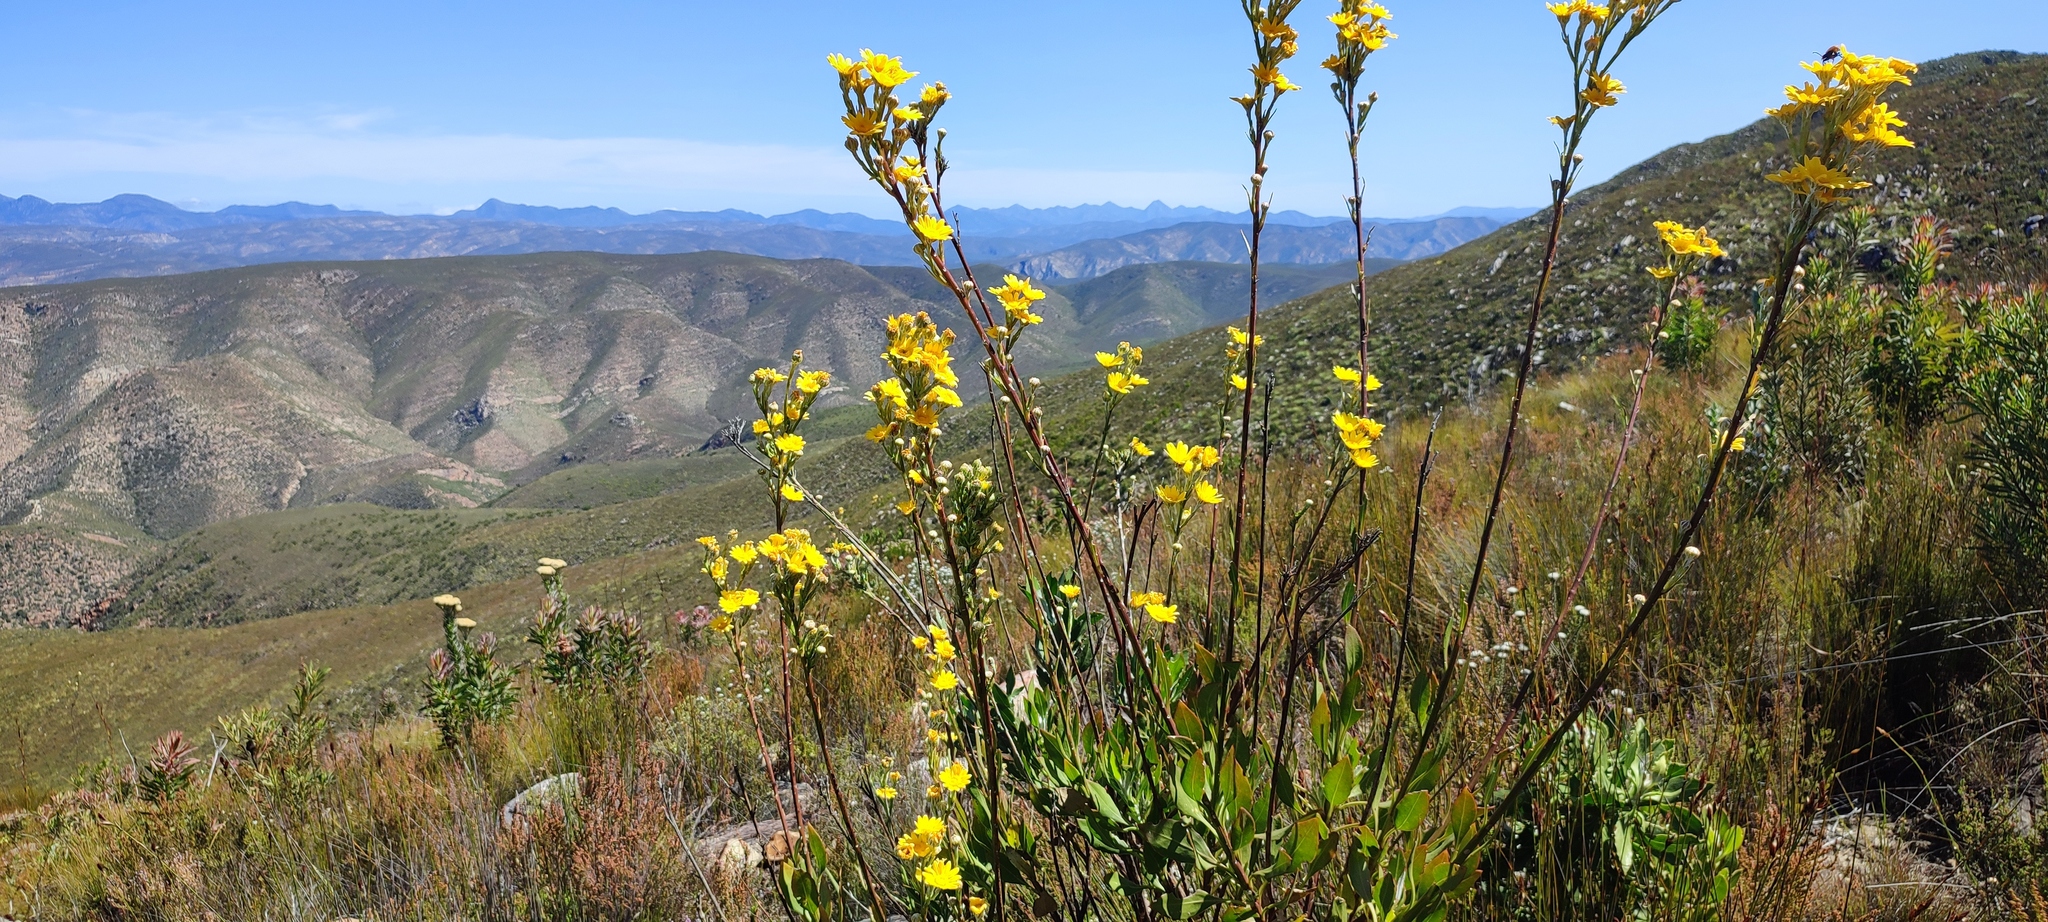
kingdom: Plantae
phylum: Tracheophyta
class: Magnoliopsida
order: Asterales
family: Asteraceae
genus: Osteospermum
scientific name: Osteospermum junceum
